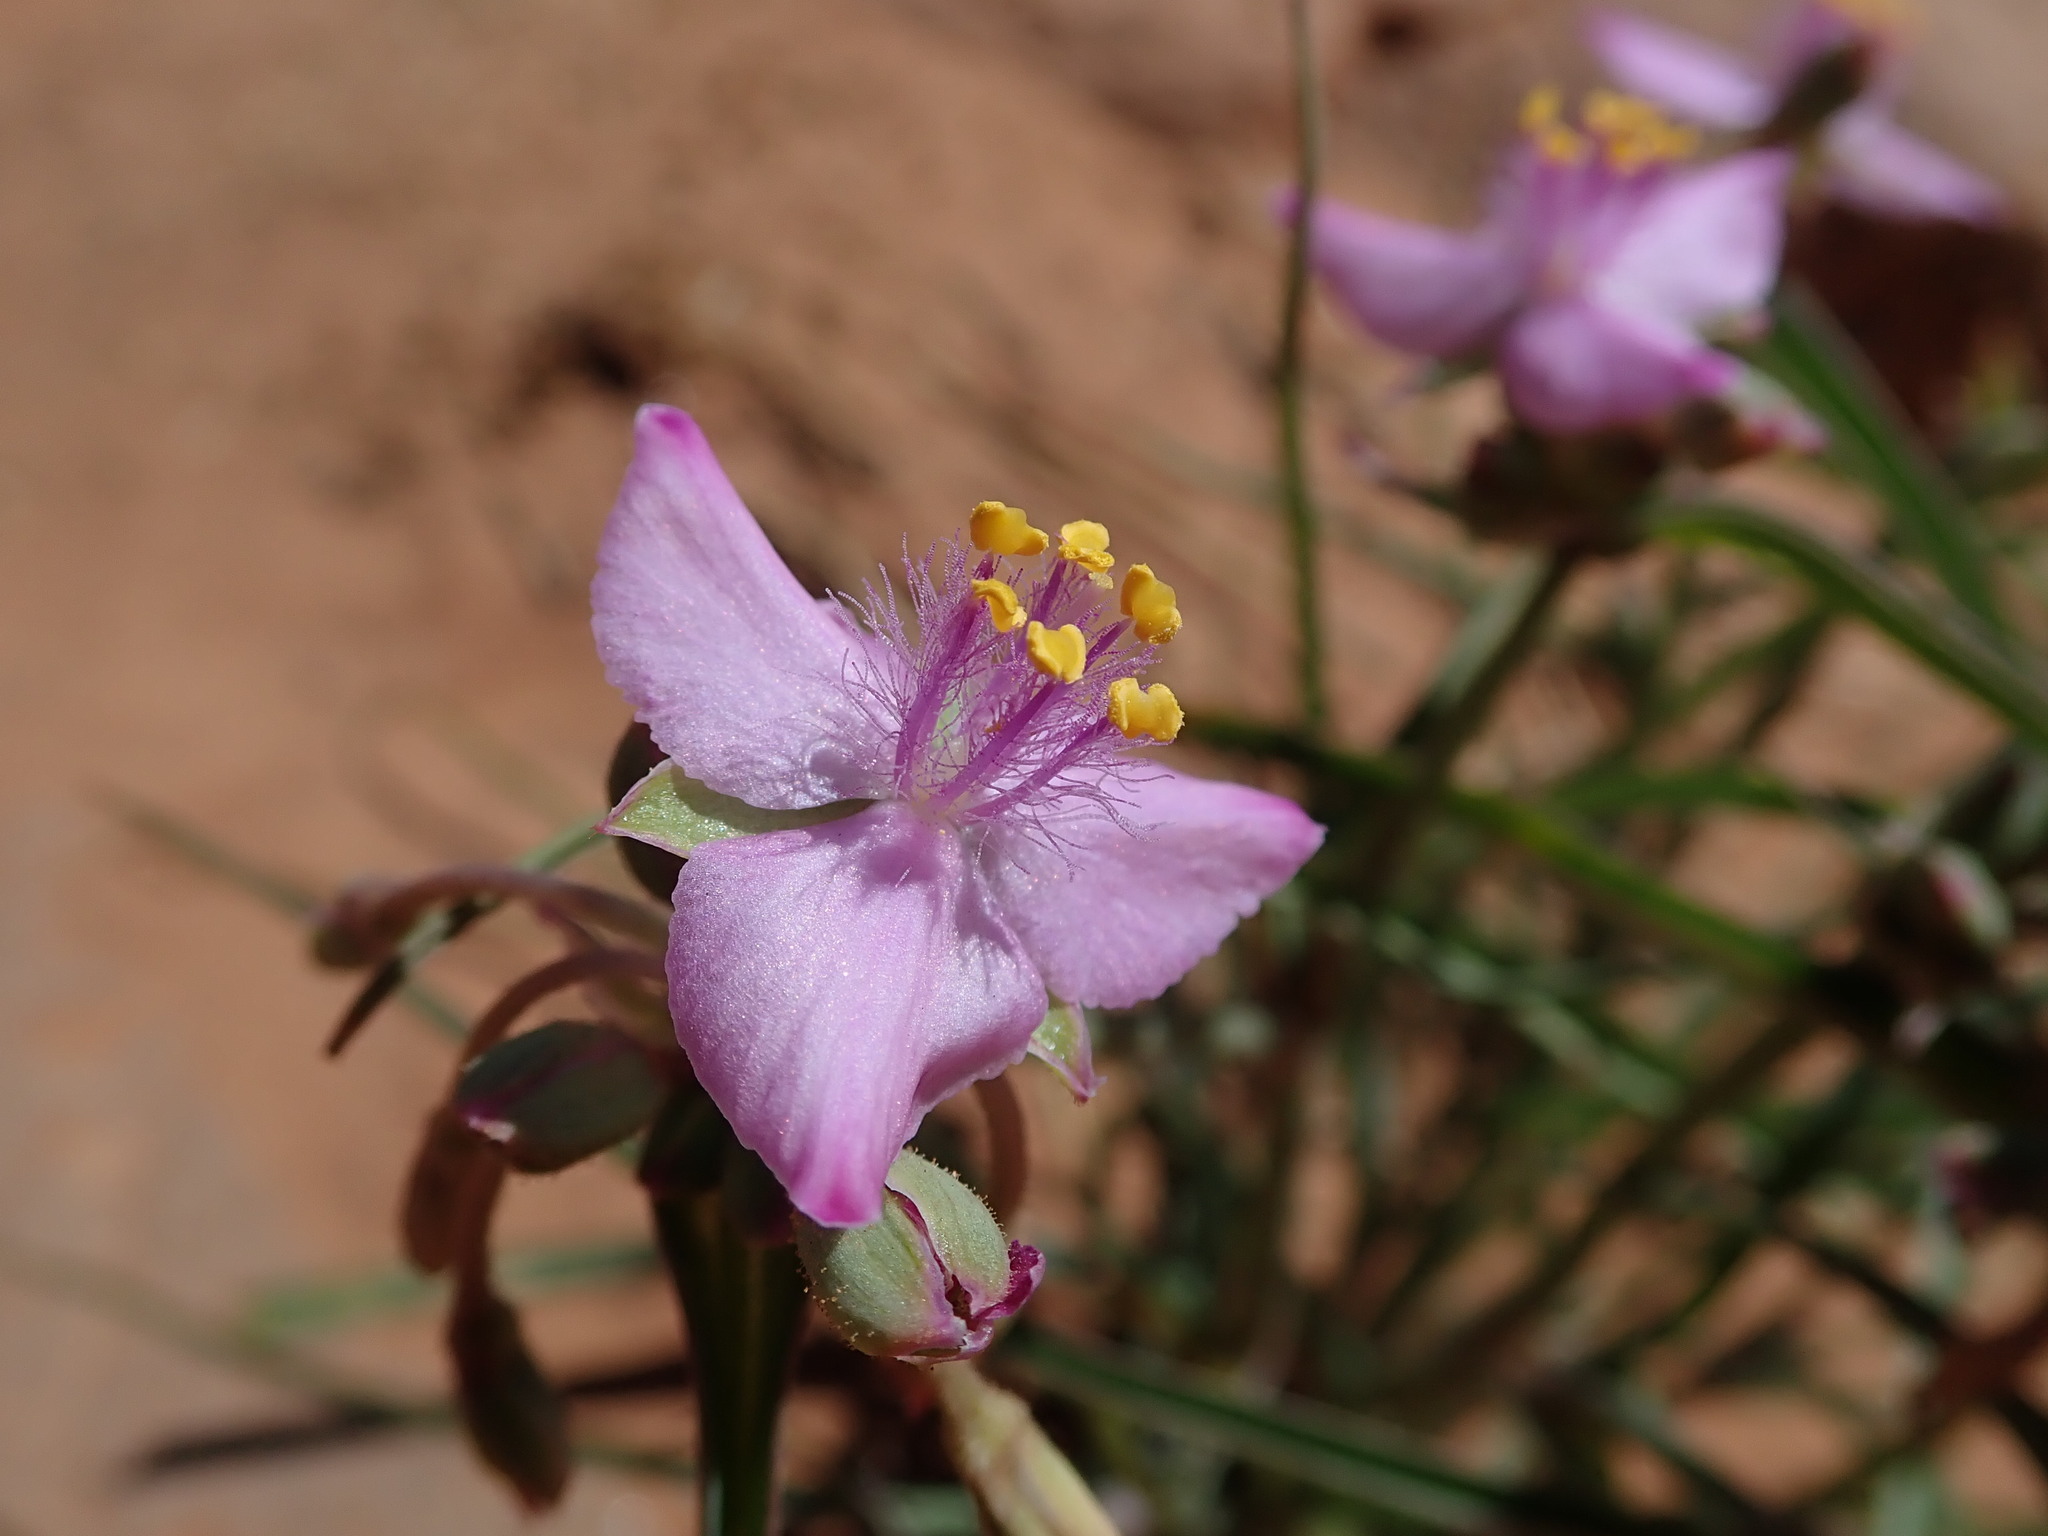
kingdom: Plantae
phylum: Tracheophyta
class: Liliopsida
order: Commelinales
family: Commelinaceae
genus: Tradescantia
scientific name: Tradescantia occidentalis
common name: Prairie spiderwort
